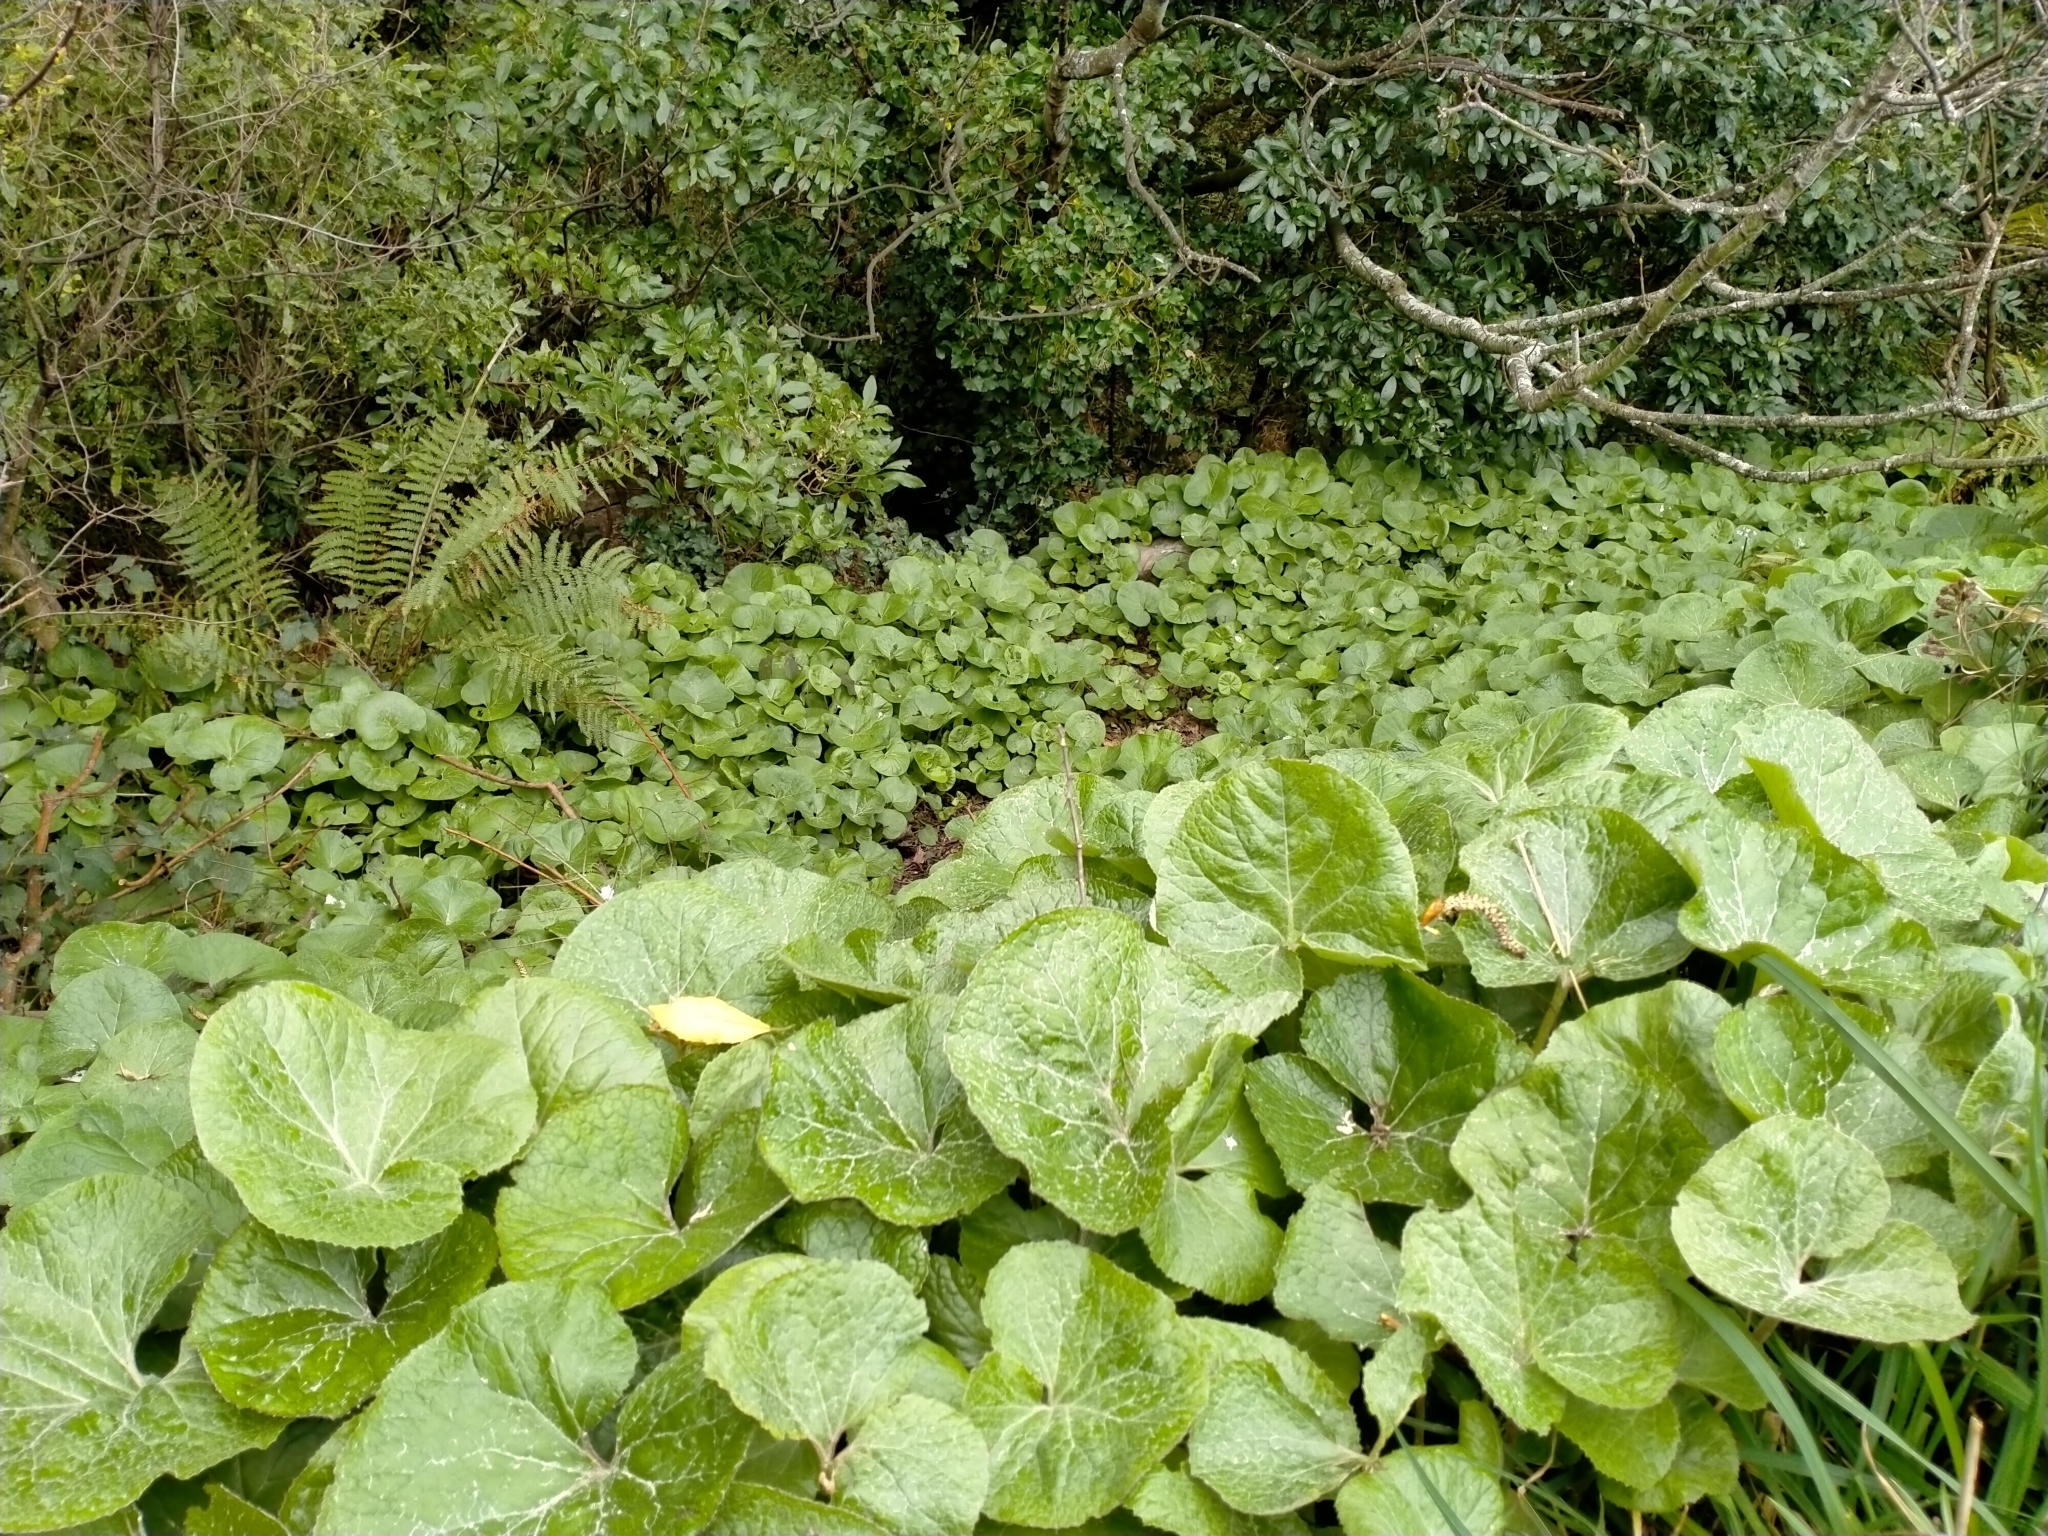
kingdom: Plantae
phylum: Tracheophyta
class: Magnoliopsida
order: Asterales
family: Asteraceae
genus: Petasites
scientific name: Petasites pyrenaicus
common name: Winter heliotrope
